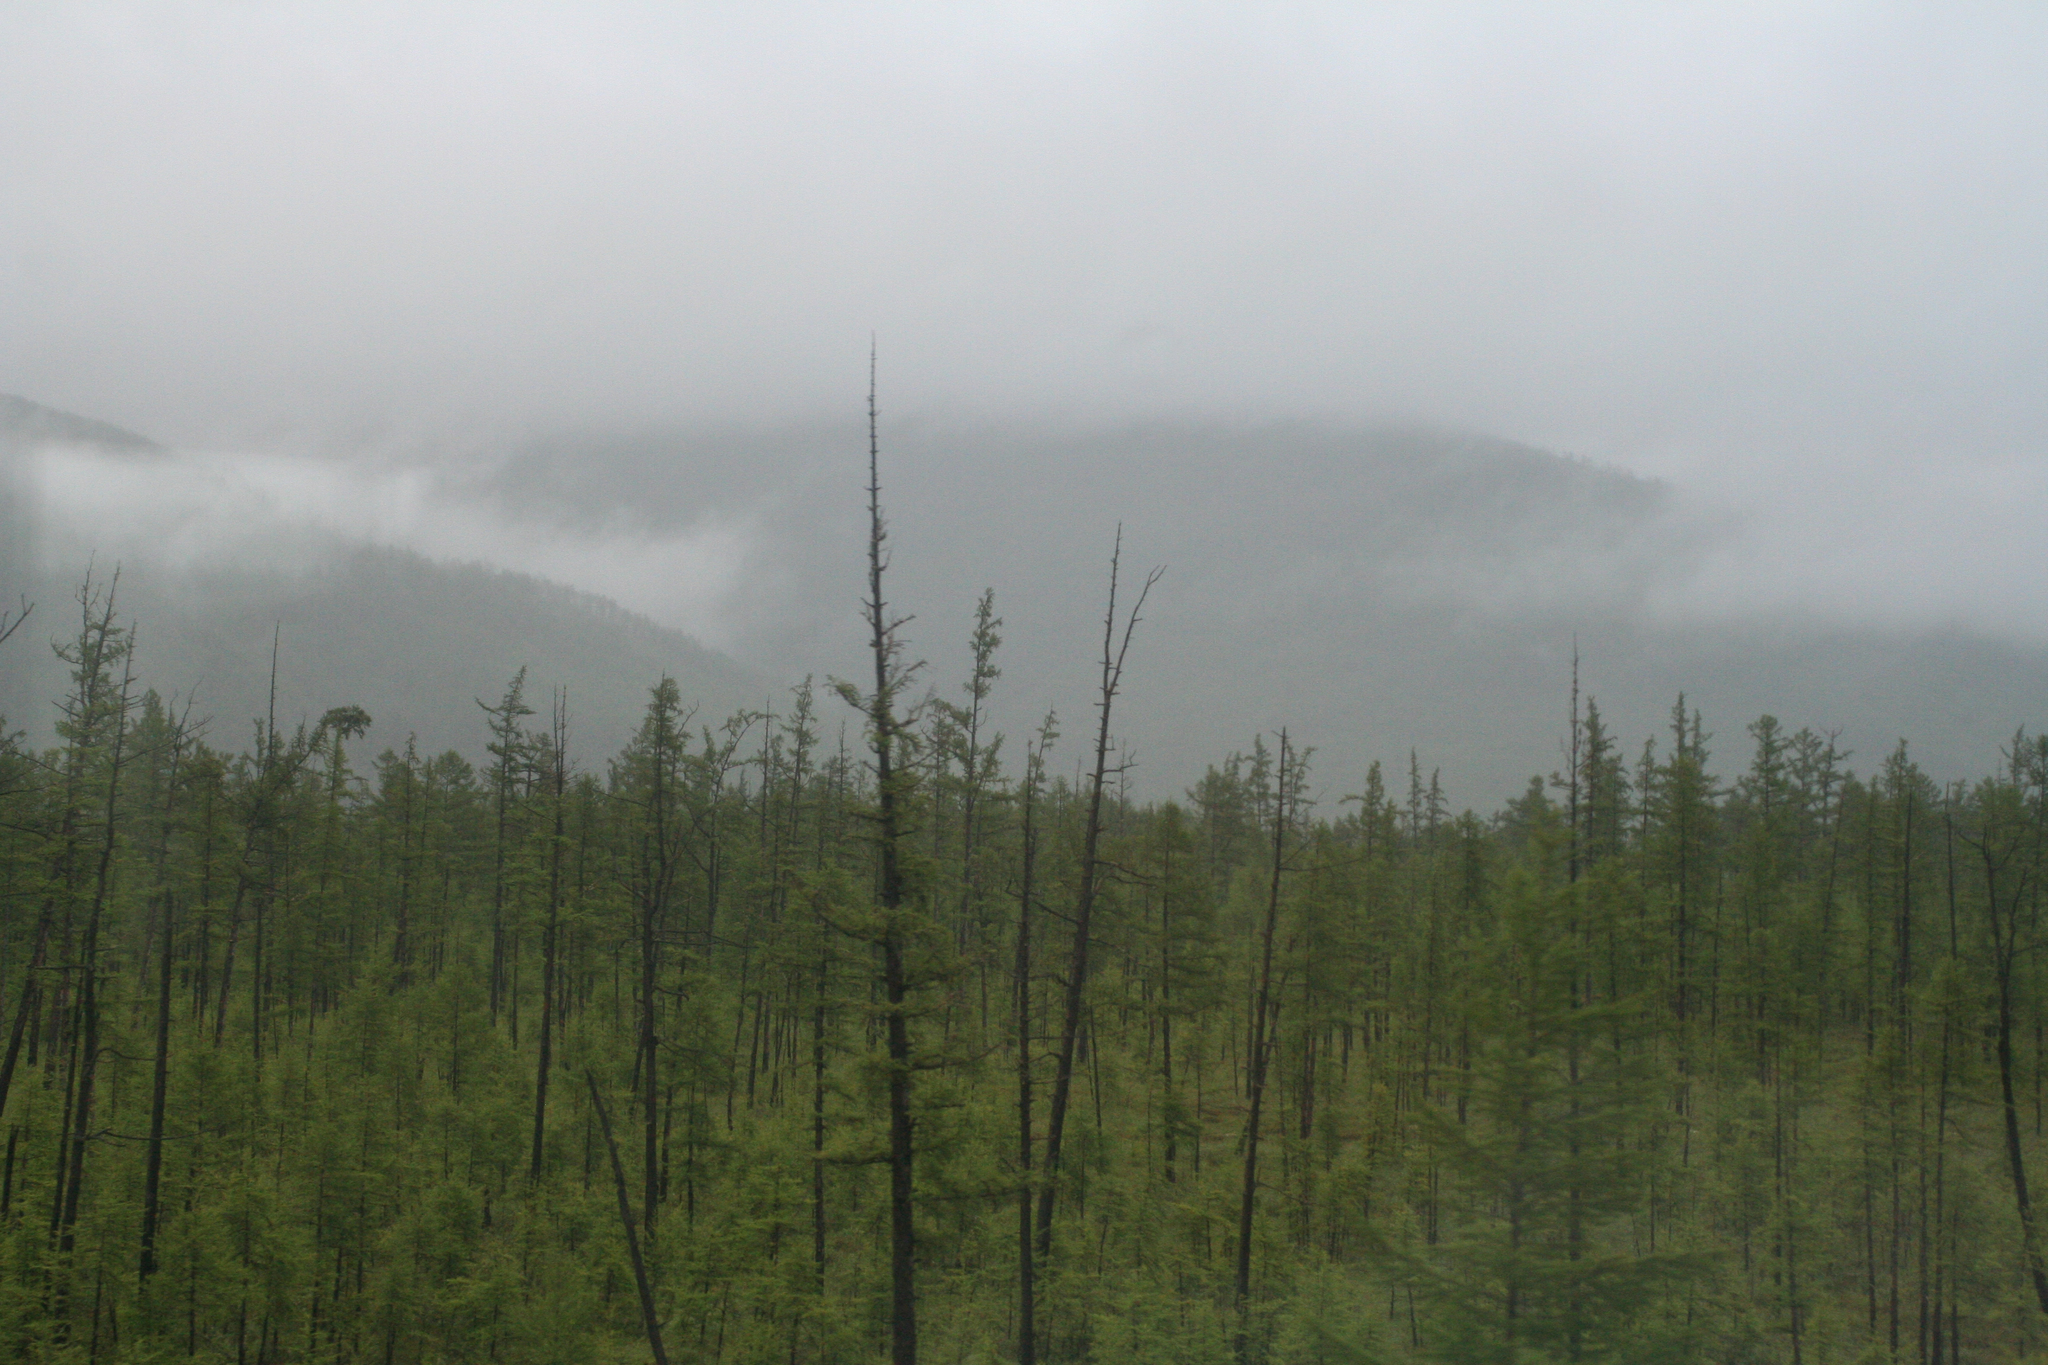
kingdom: Plantae
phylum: Tracheophyta
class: Pinopsida
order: Pinales
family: Pinaceae
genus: Larix
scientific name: Larix gmelinii
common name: Dahurian larch
